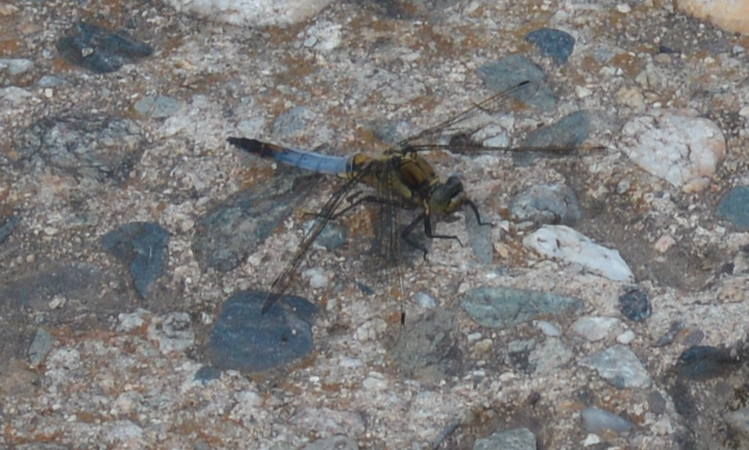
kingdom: Animalia
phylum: Arthropoda
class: Insecta
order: Odonata
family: Libellulidae
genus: Orthetrum
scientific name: Orthetrum cancellatum
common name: Black-tailed skimmer
